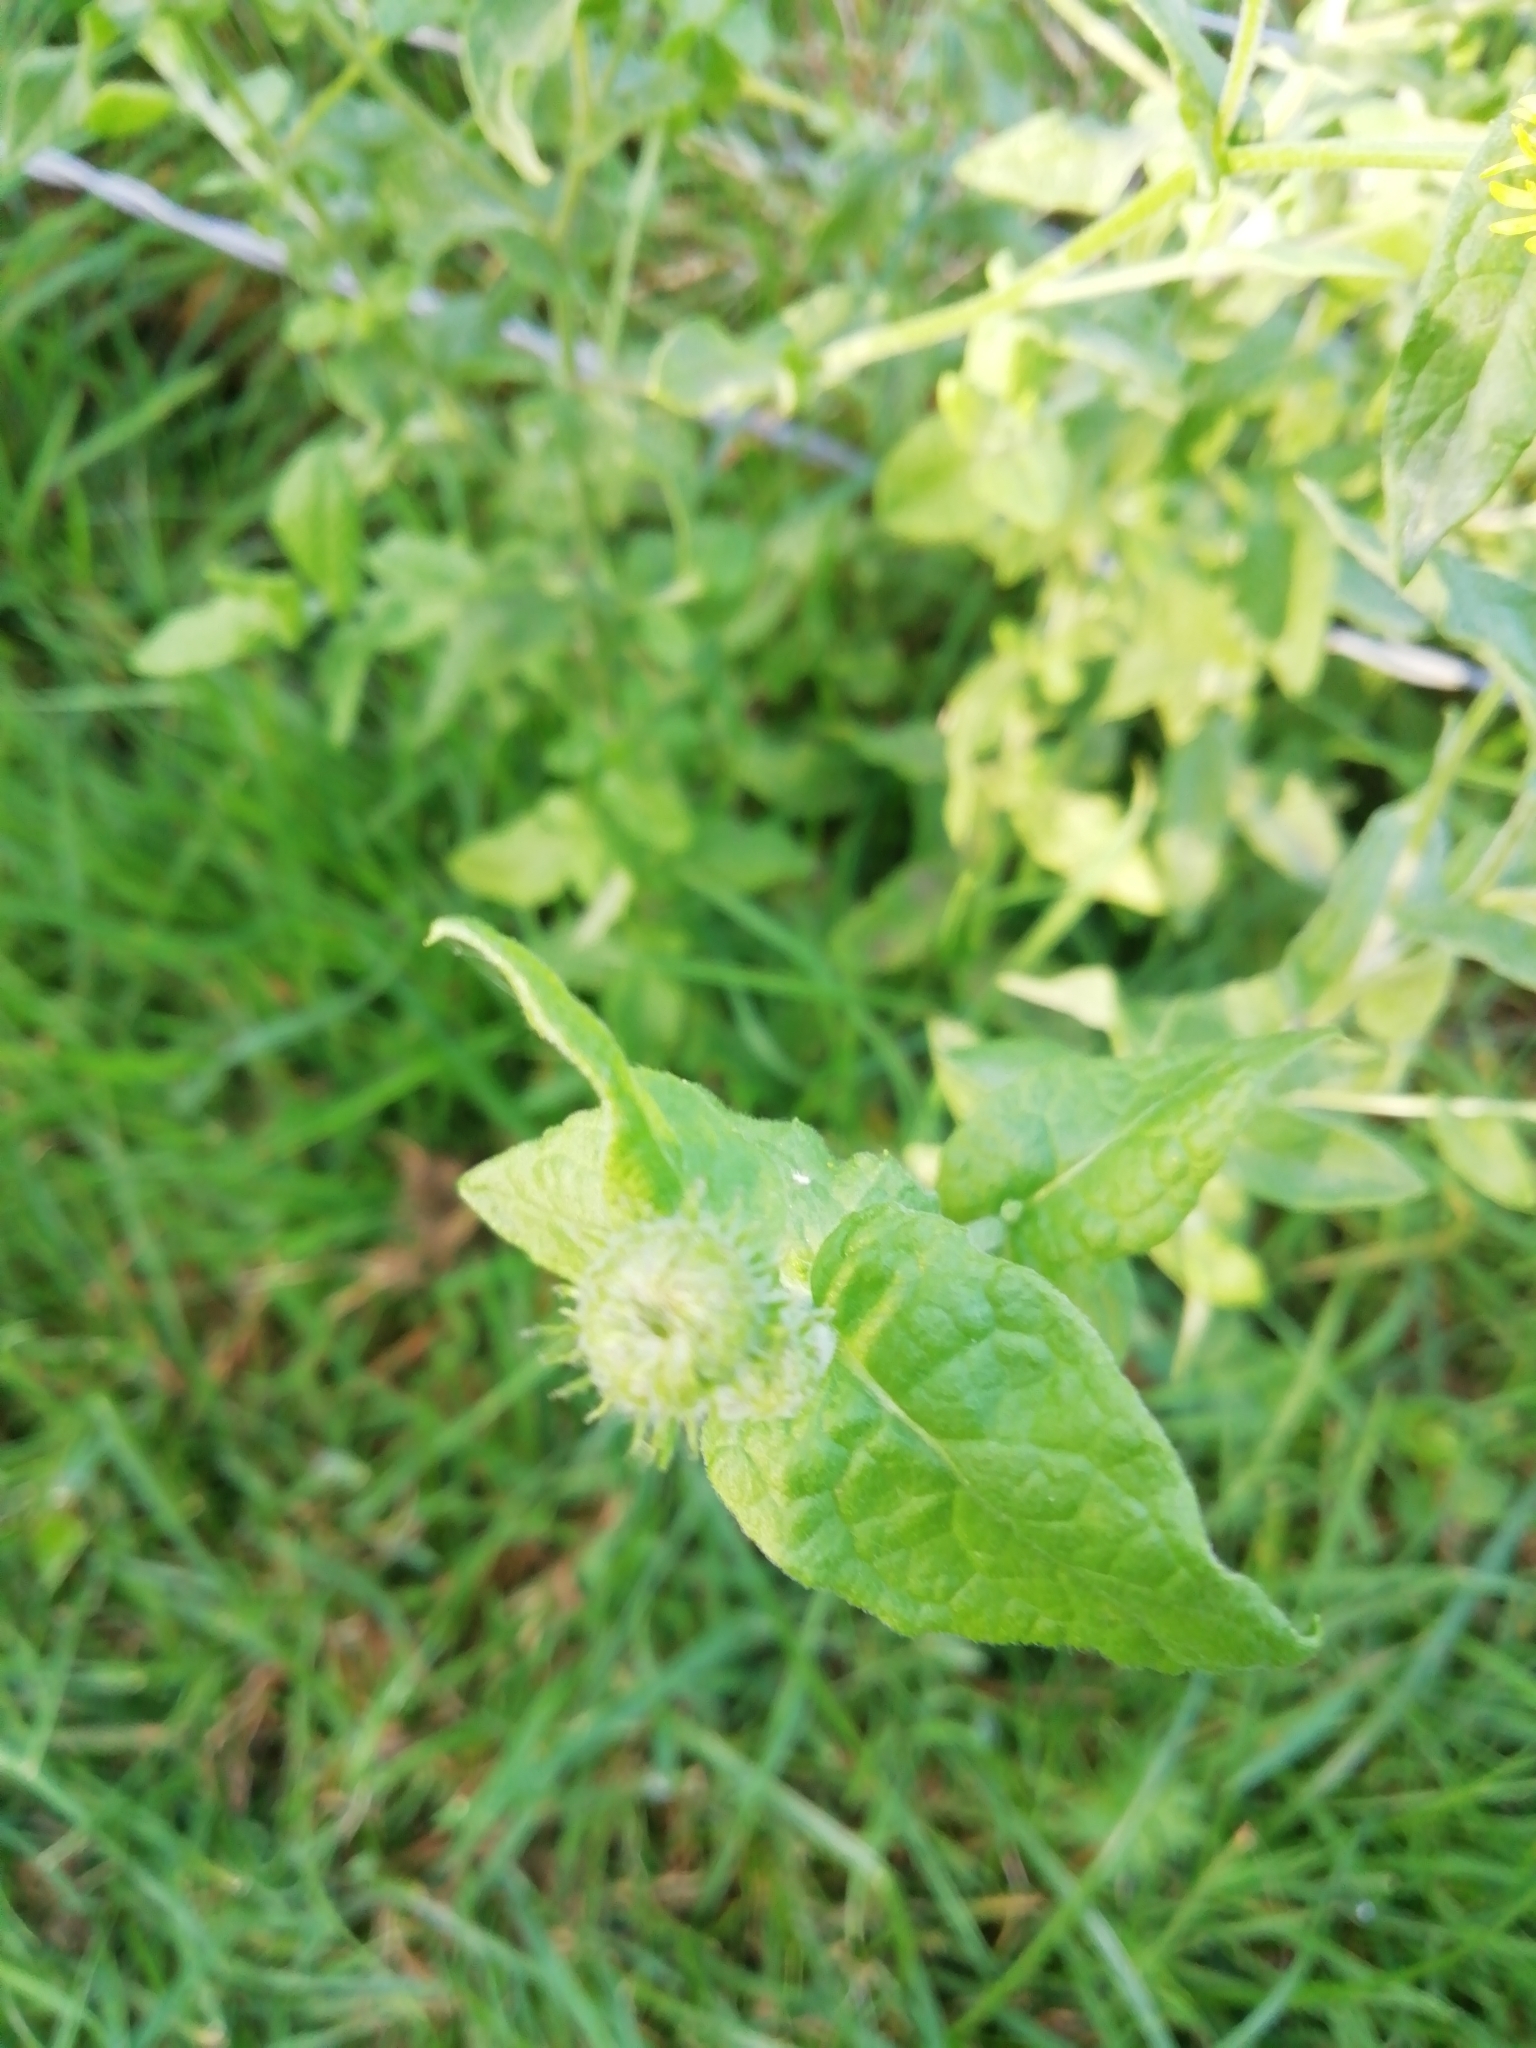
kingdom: Plantae
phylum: Tracheophyta
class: Magnoliopsida
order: Asterales
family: Asteraceae
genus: Pulicaria
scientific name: Pulicaria dysenterica
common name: Common fleabane
